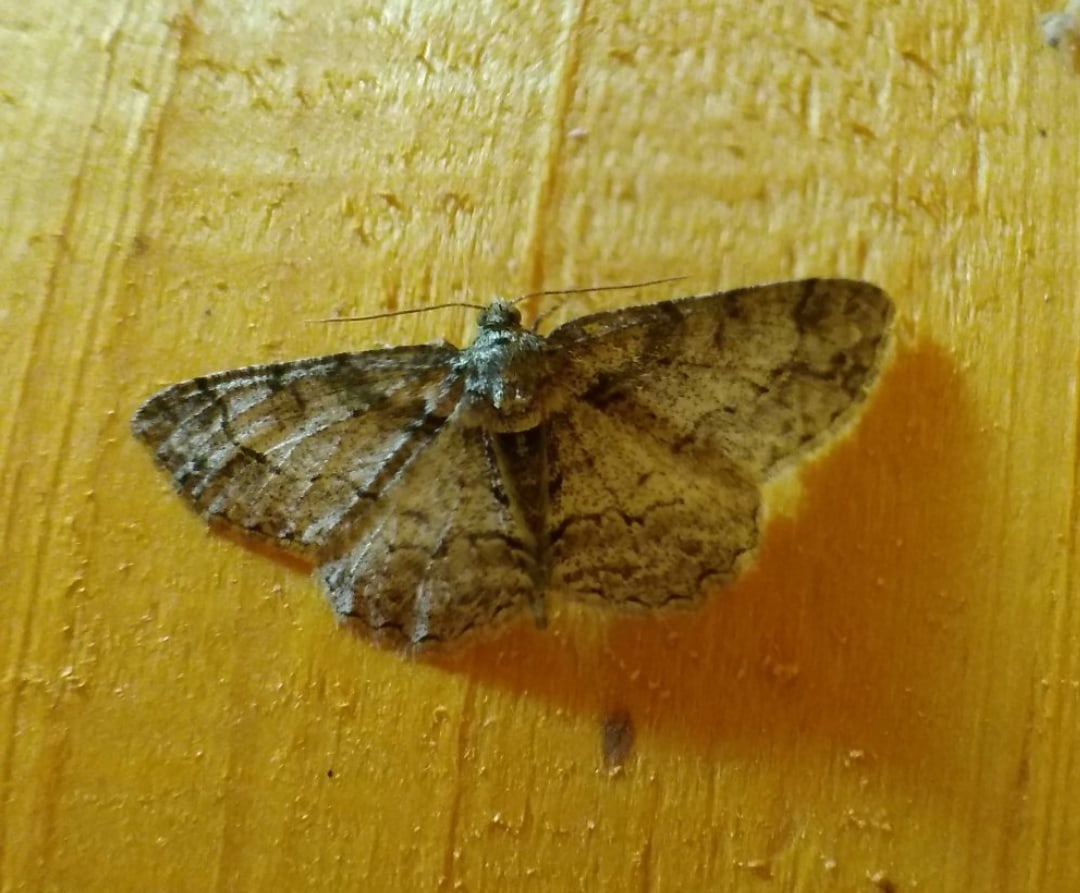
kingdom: Animalia
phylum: Arthropoda
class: Insecta
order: Lepidoptera
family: Geometridae
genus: Paradarisa
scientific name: Paradarisa consonaria
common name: Square spot
